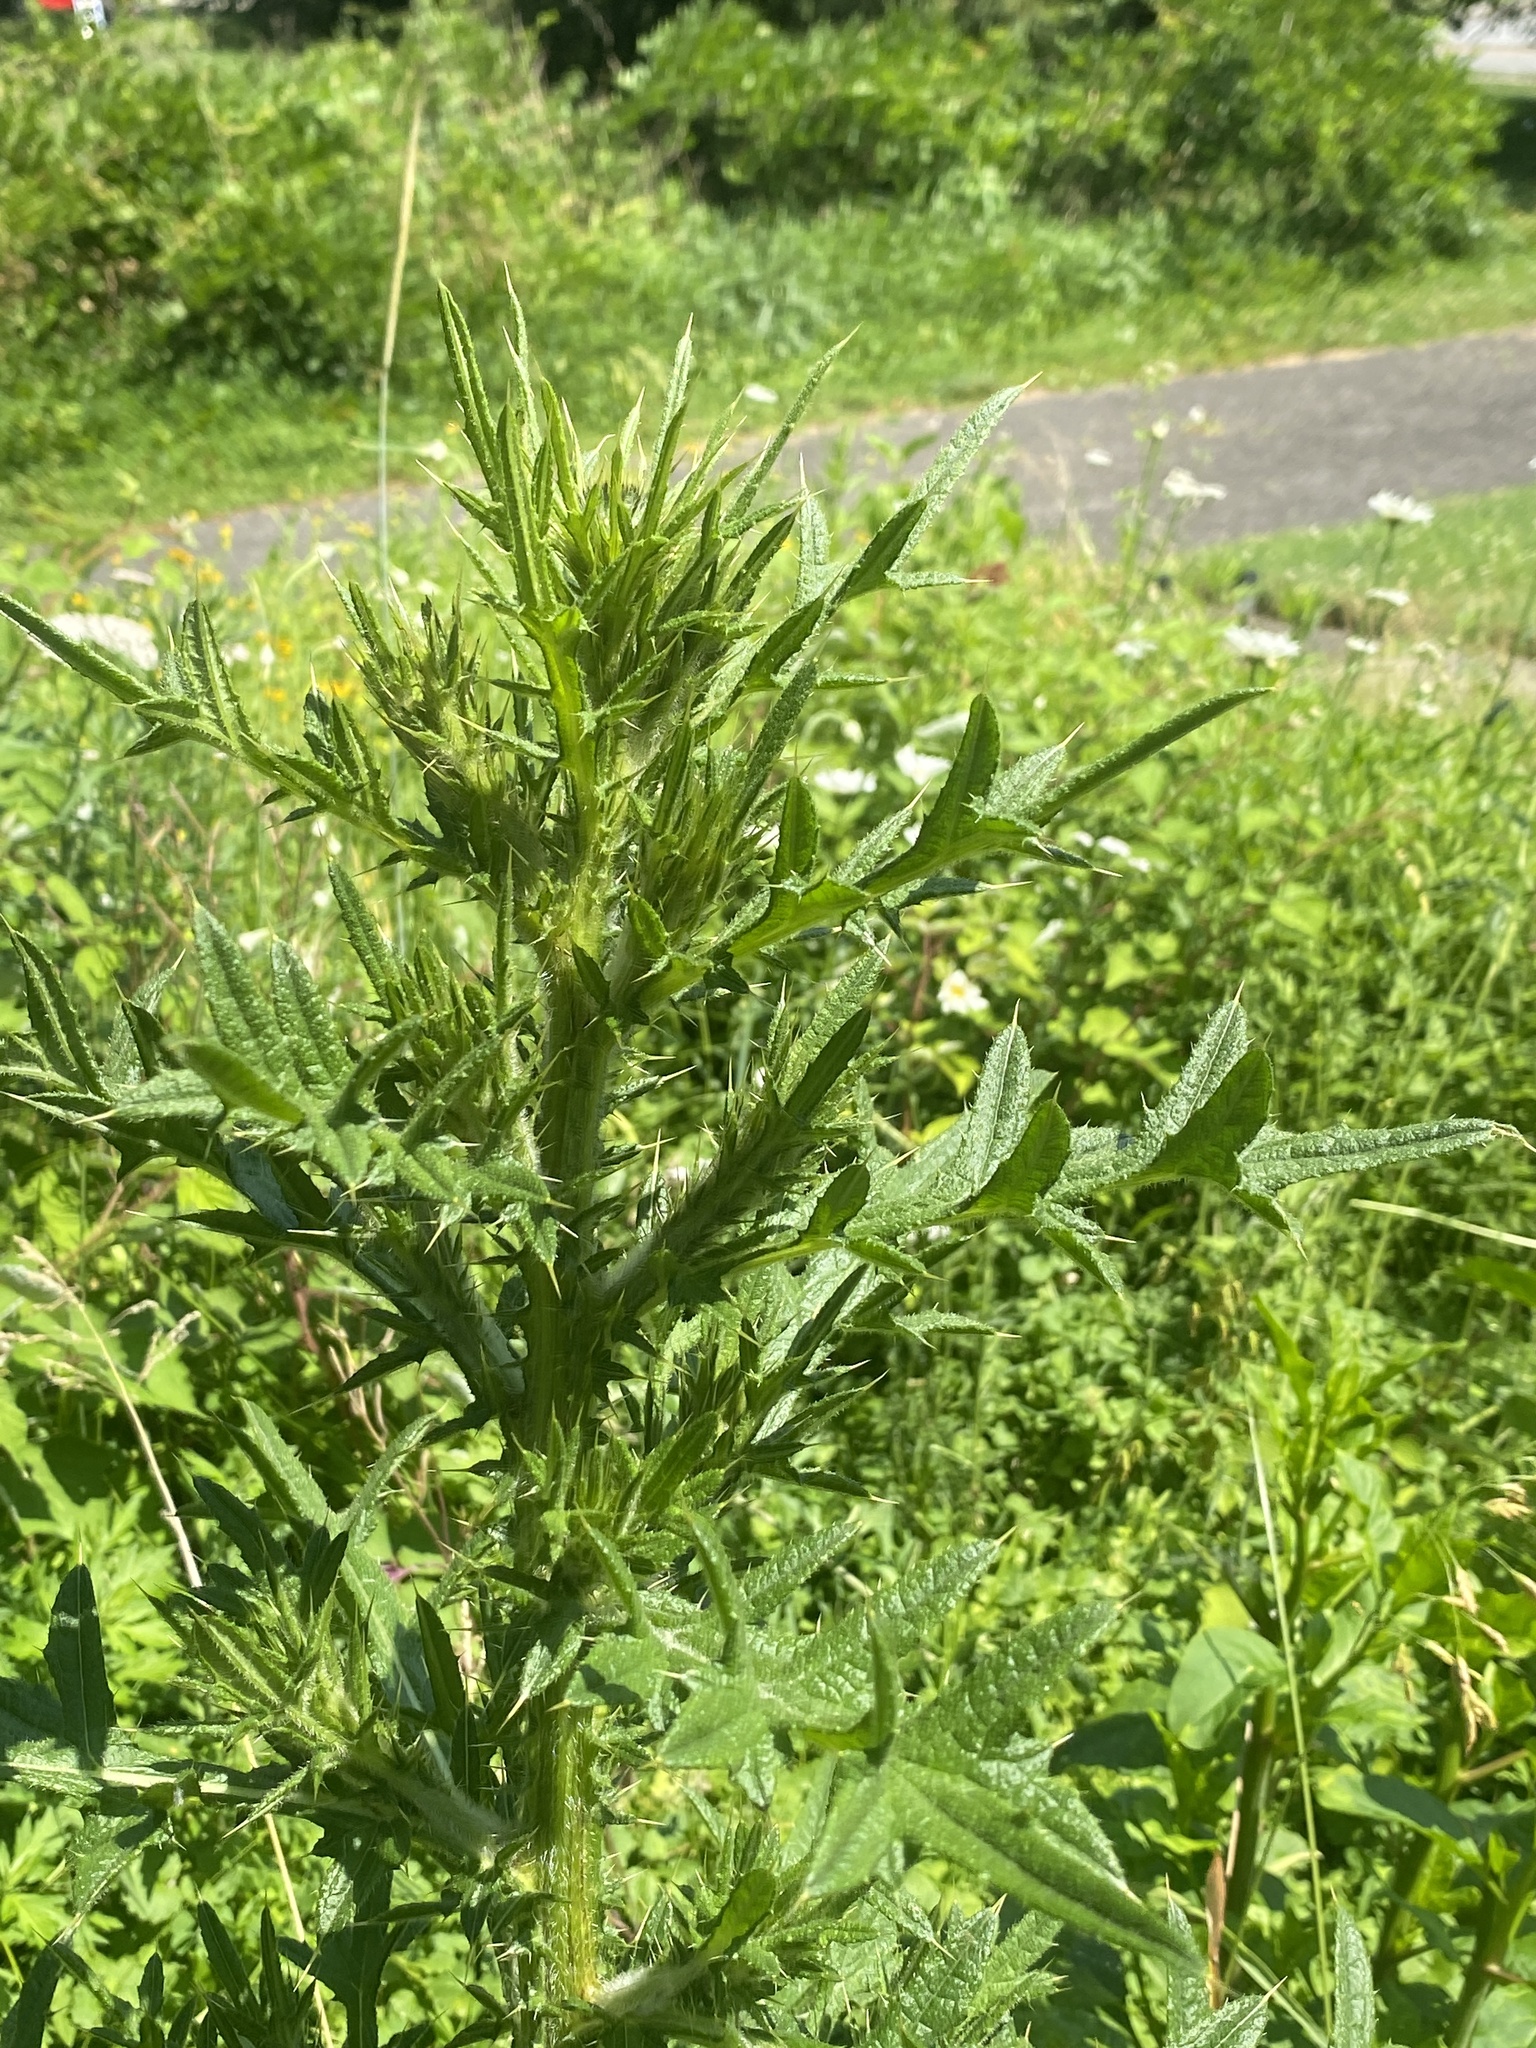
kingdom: Plantae
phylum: Tracheophyta
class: Magnoliopsida
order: Asterales
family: Asteraceae
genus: Cirsium
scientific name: Cirsium vulgare
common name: Bull thistle
